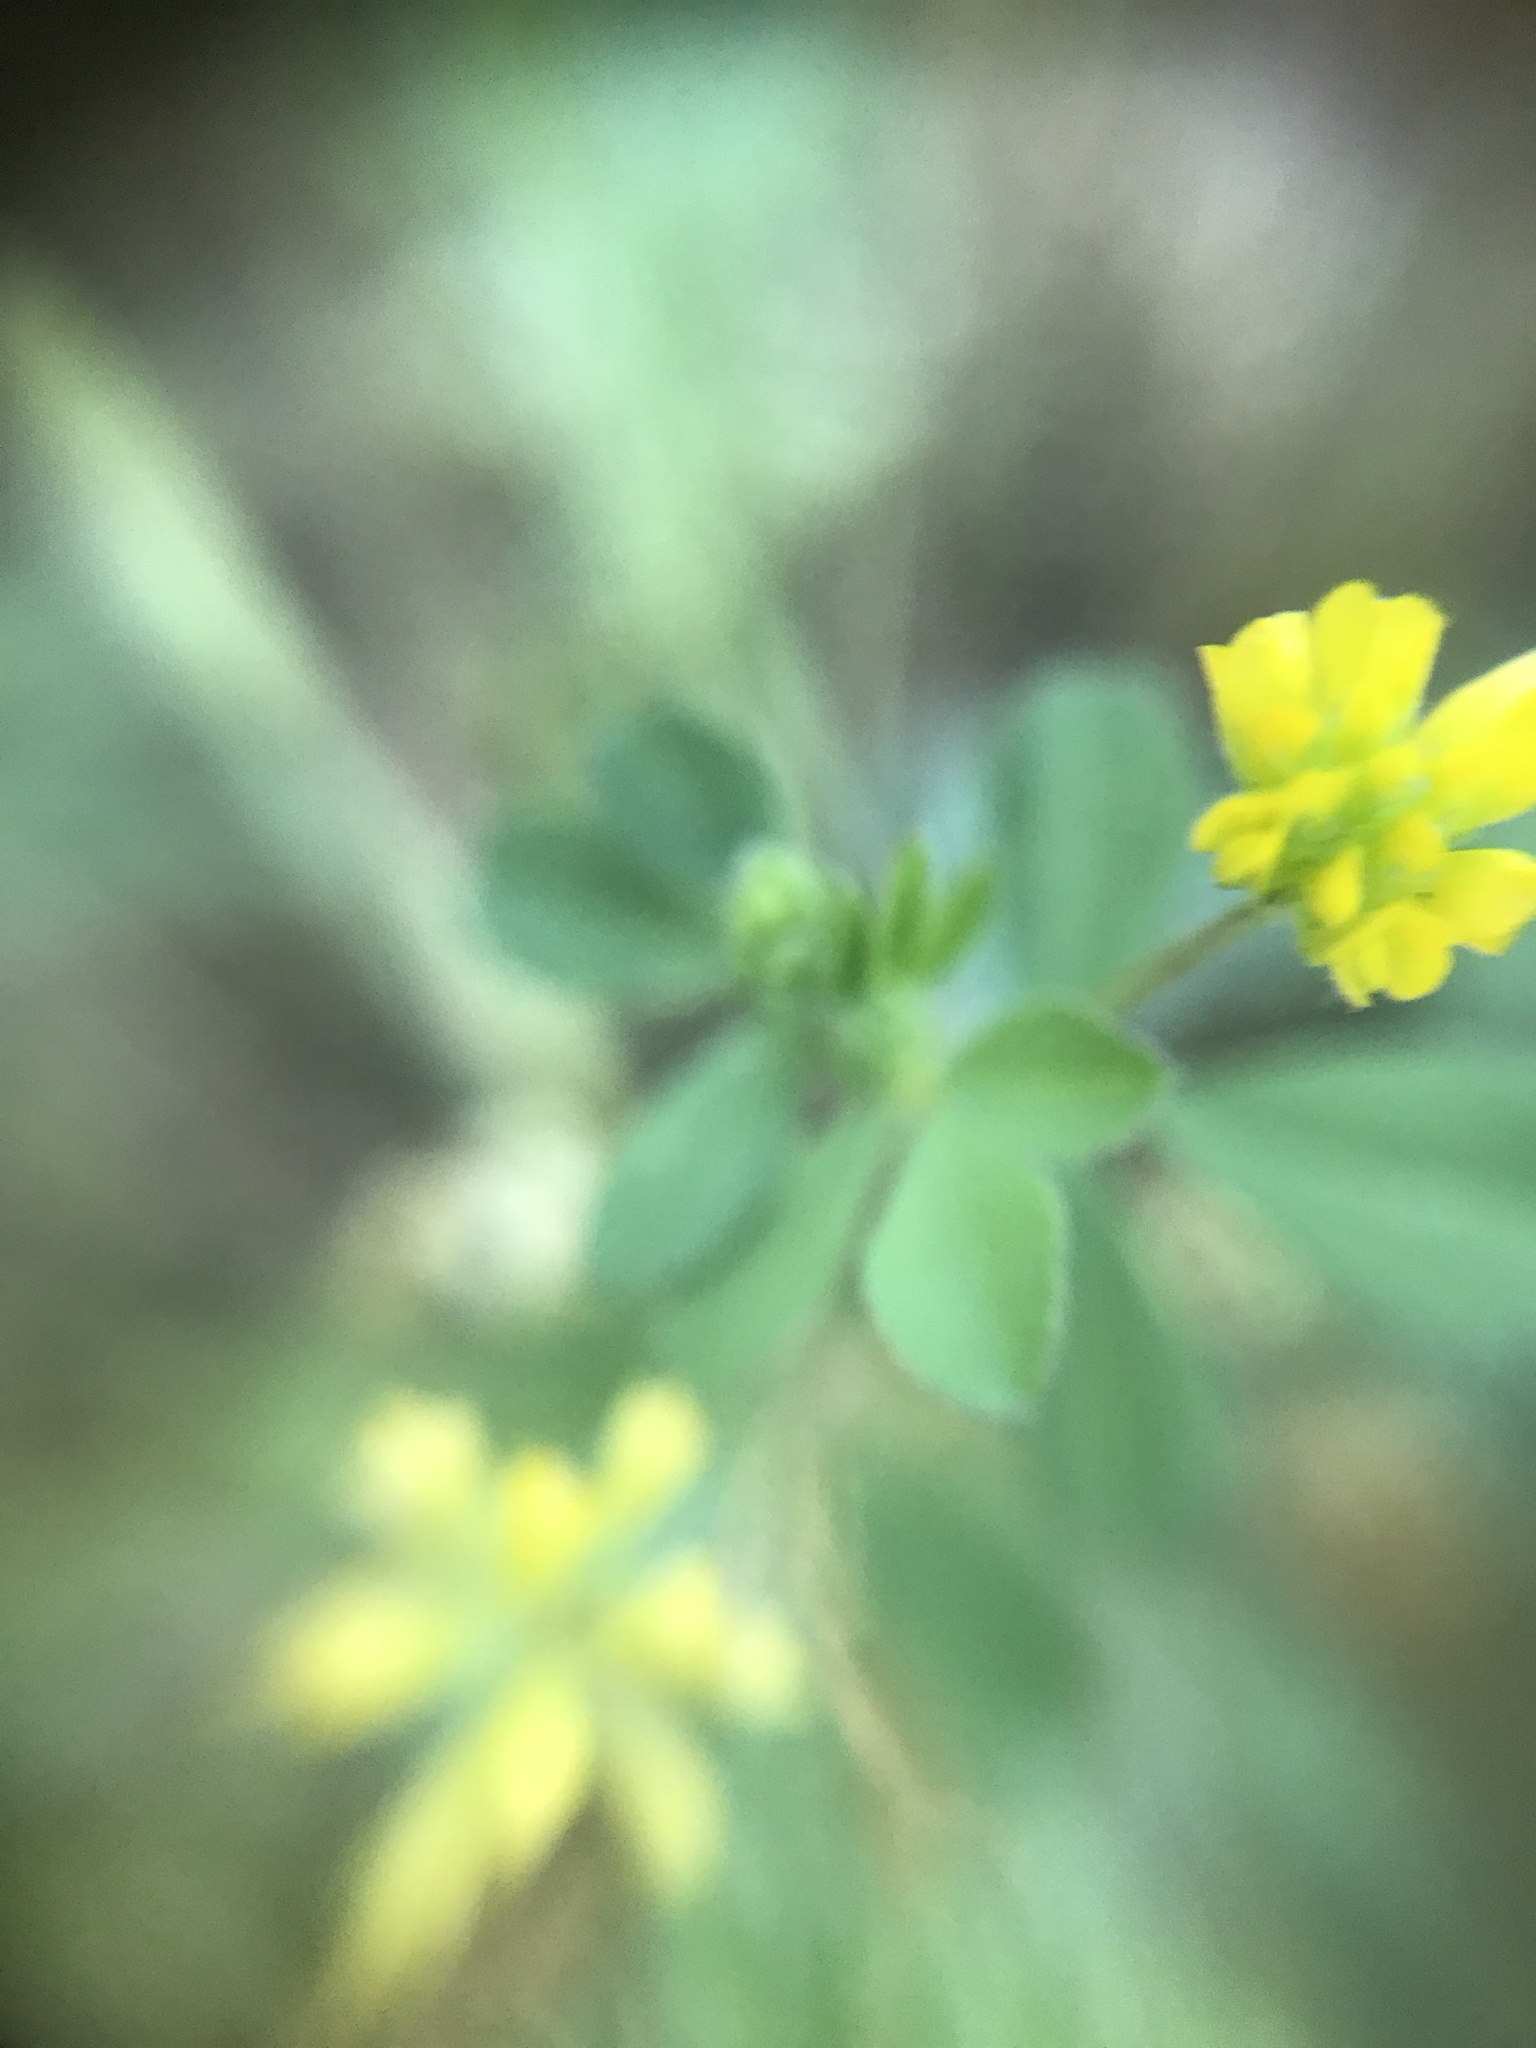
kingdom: Plantae
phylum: Tracheophyta
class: Magnoliopsida
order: Fabales
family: Fabaceae
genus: Trifolium
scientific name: Trifolium dubium
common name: Suckling clover
